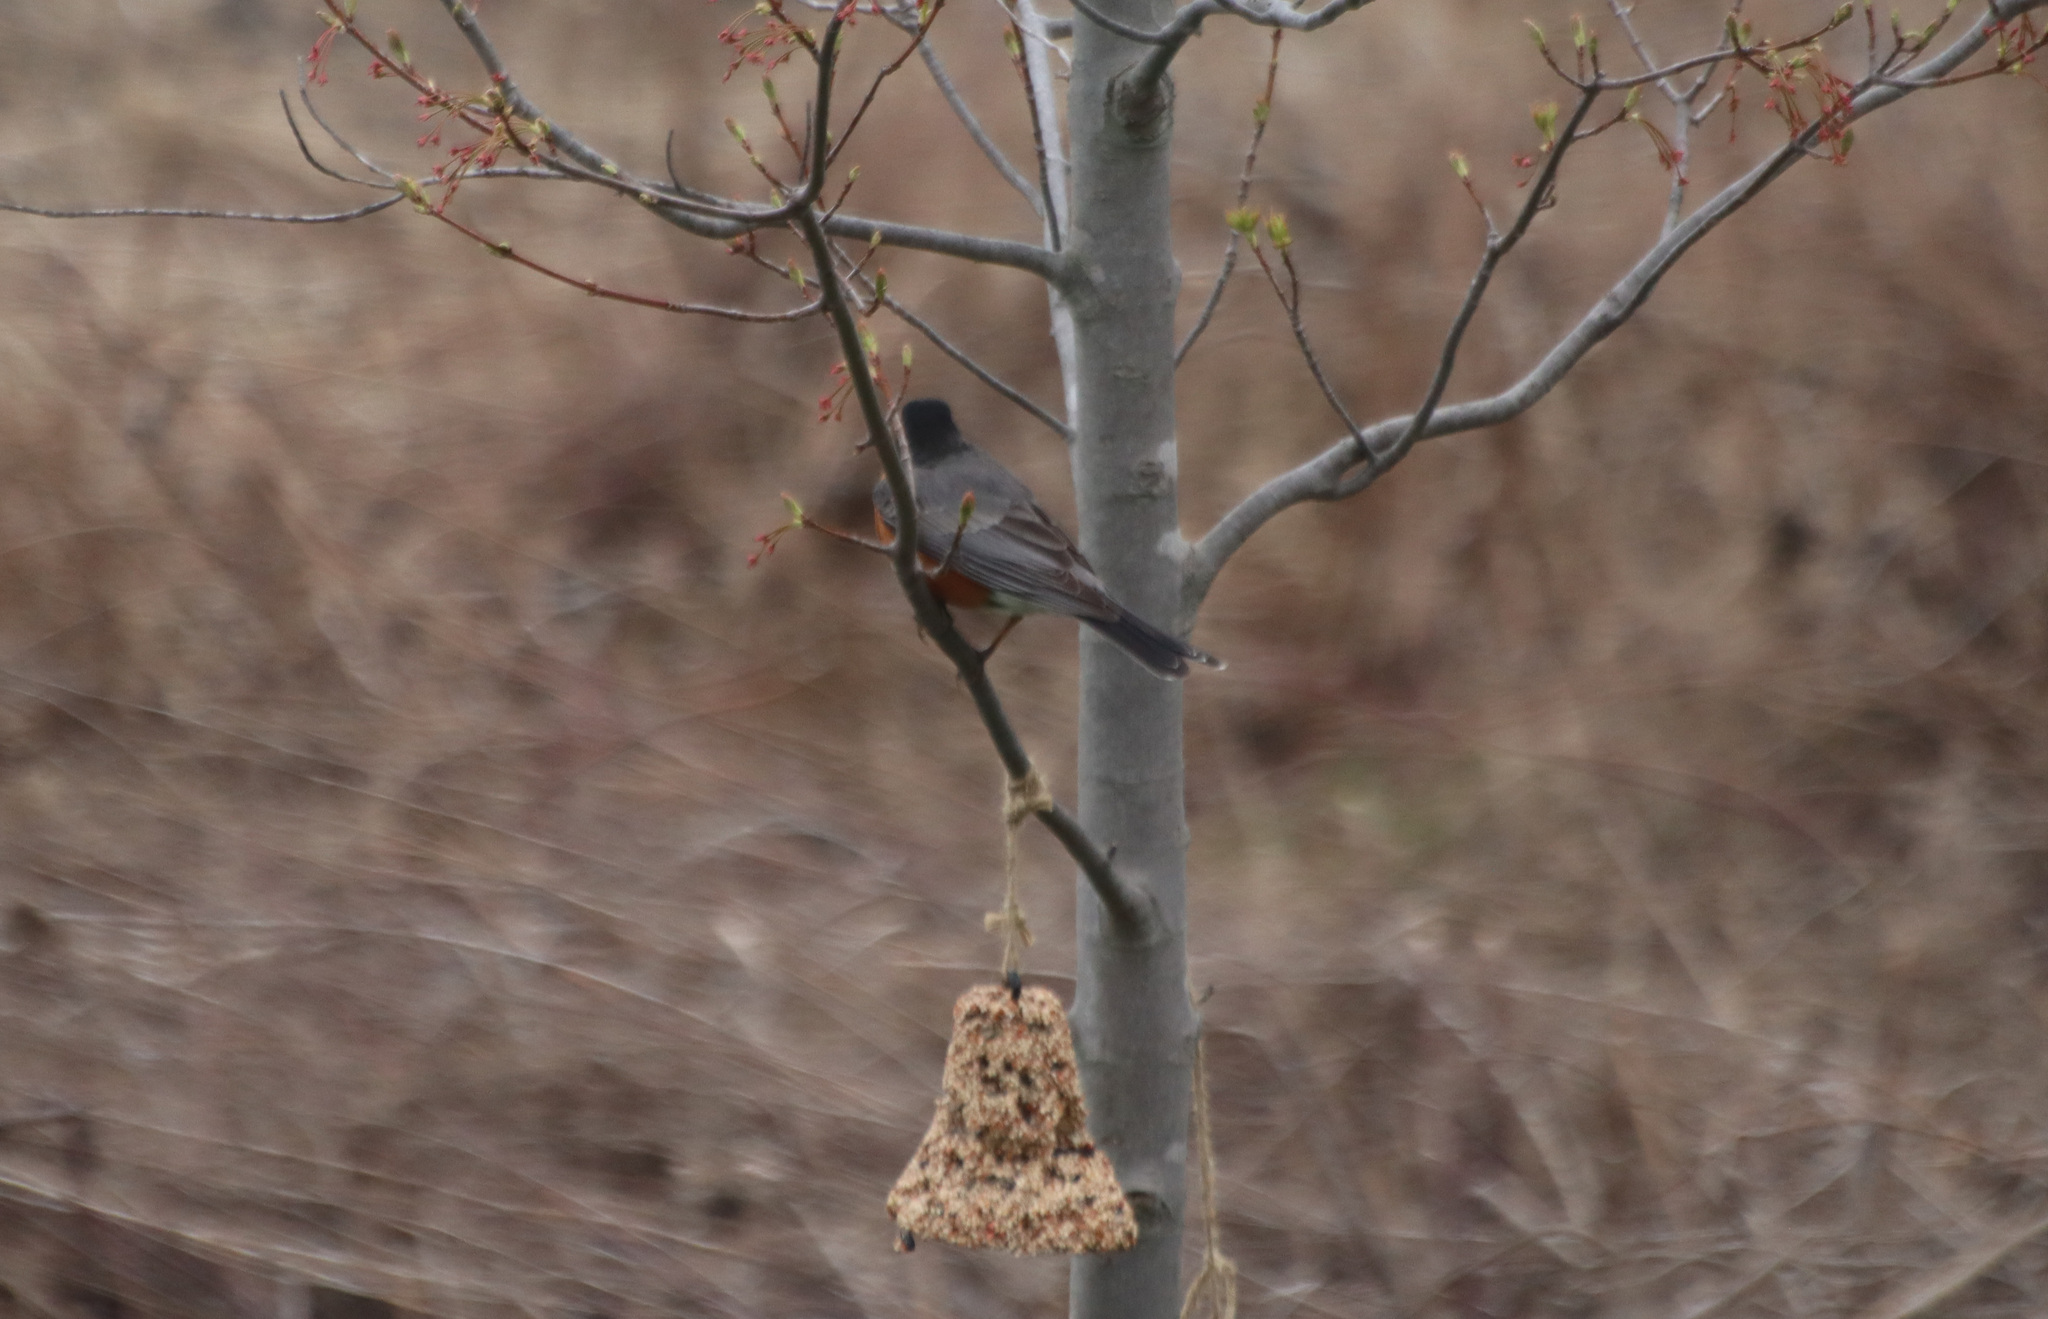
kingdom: Animalia
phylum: Chordata
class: Aves
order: Passeriformes
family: Turdidae
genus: Turdus
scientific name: Turdus migratorius
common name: American robin
